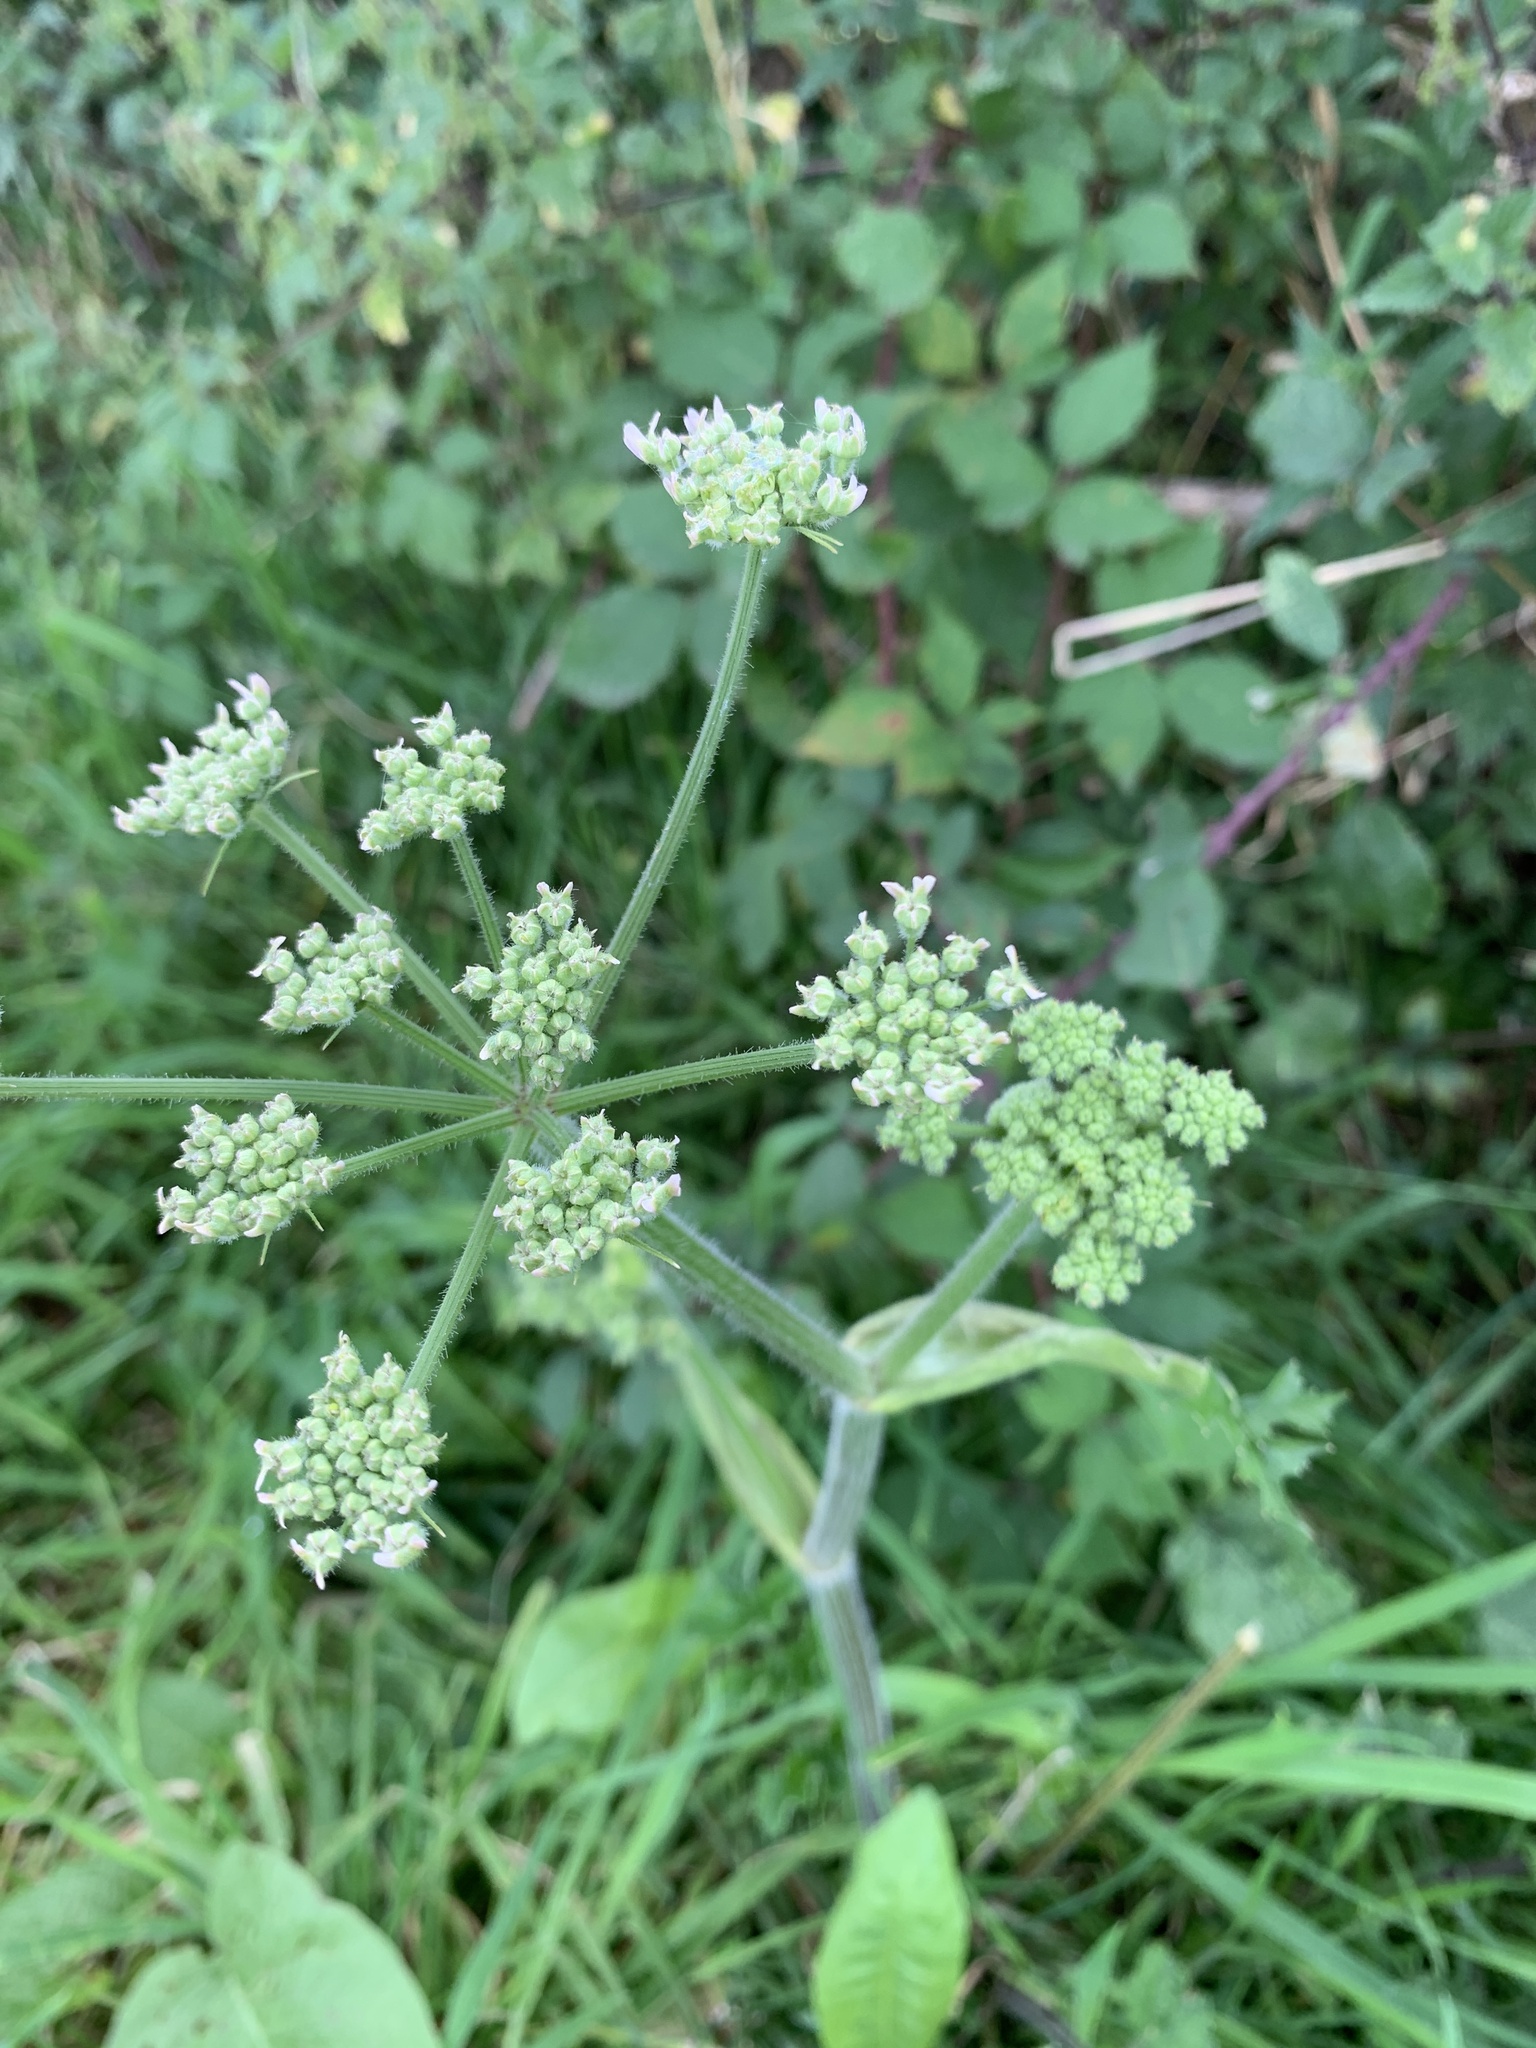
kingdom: Plantae
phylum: Tracheophyta
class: Magnoliopsida
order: Apiales
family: Apiaceae
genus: Heracleum
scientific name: Heracleum sphondylium
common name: Hogweed
